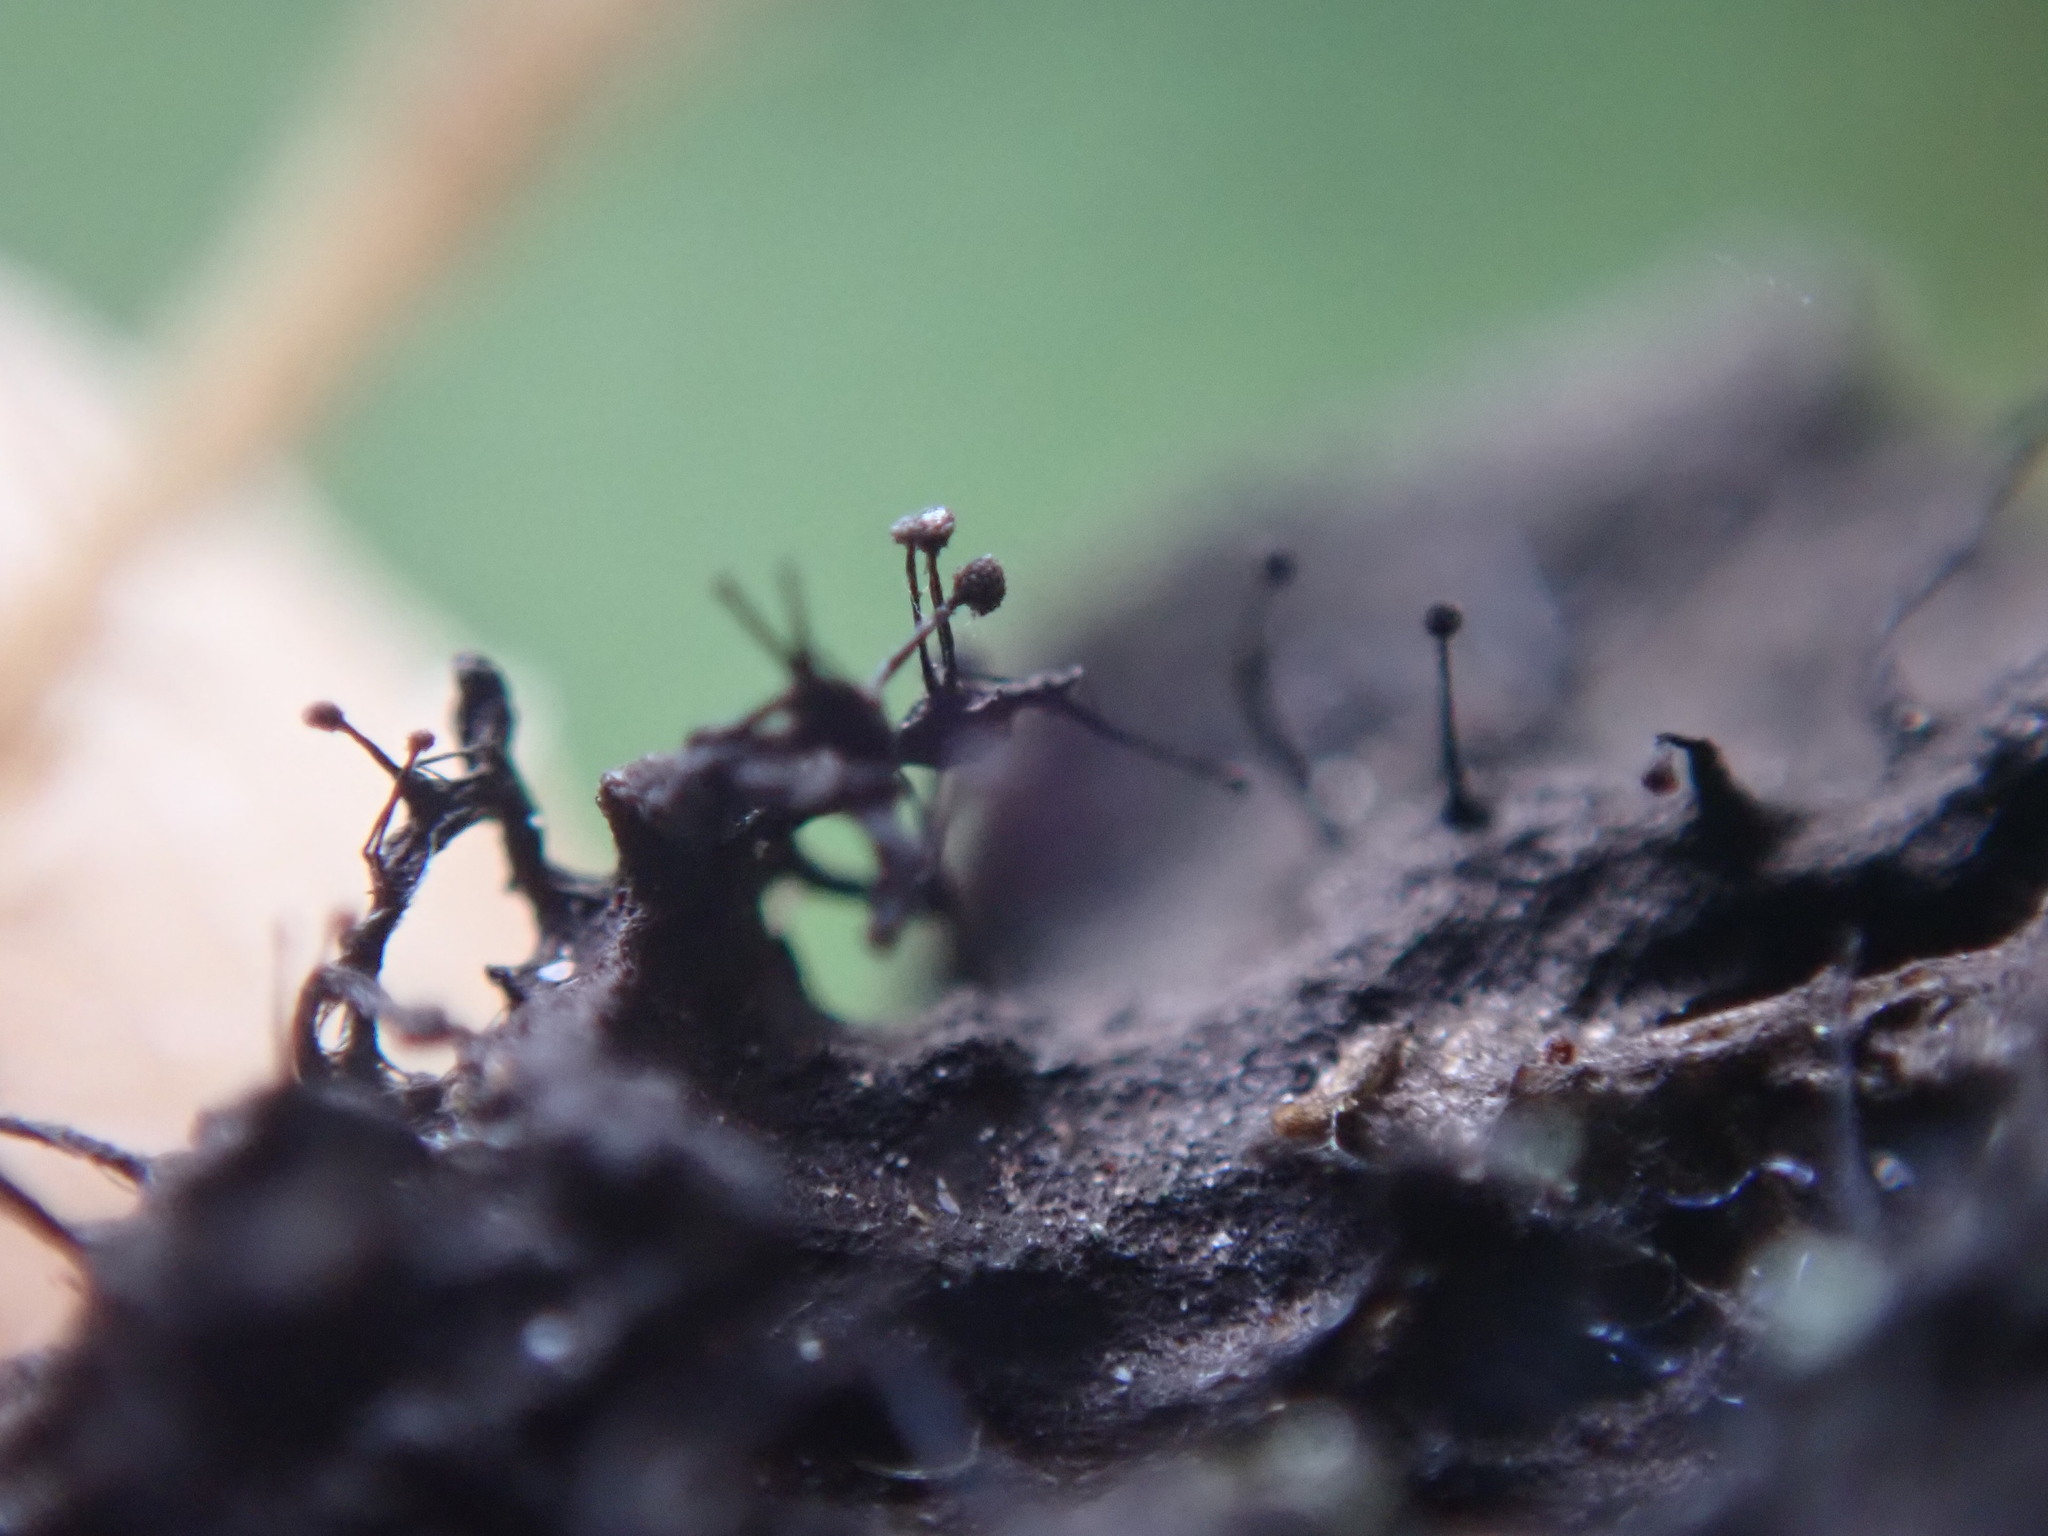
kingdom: Fungi
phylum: Ascomycota
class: Leotiomycetes
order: Helotiales
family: Amorphothecaceae
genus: Sorocybe
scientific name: Sorocybe resinae
